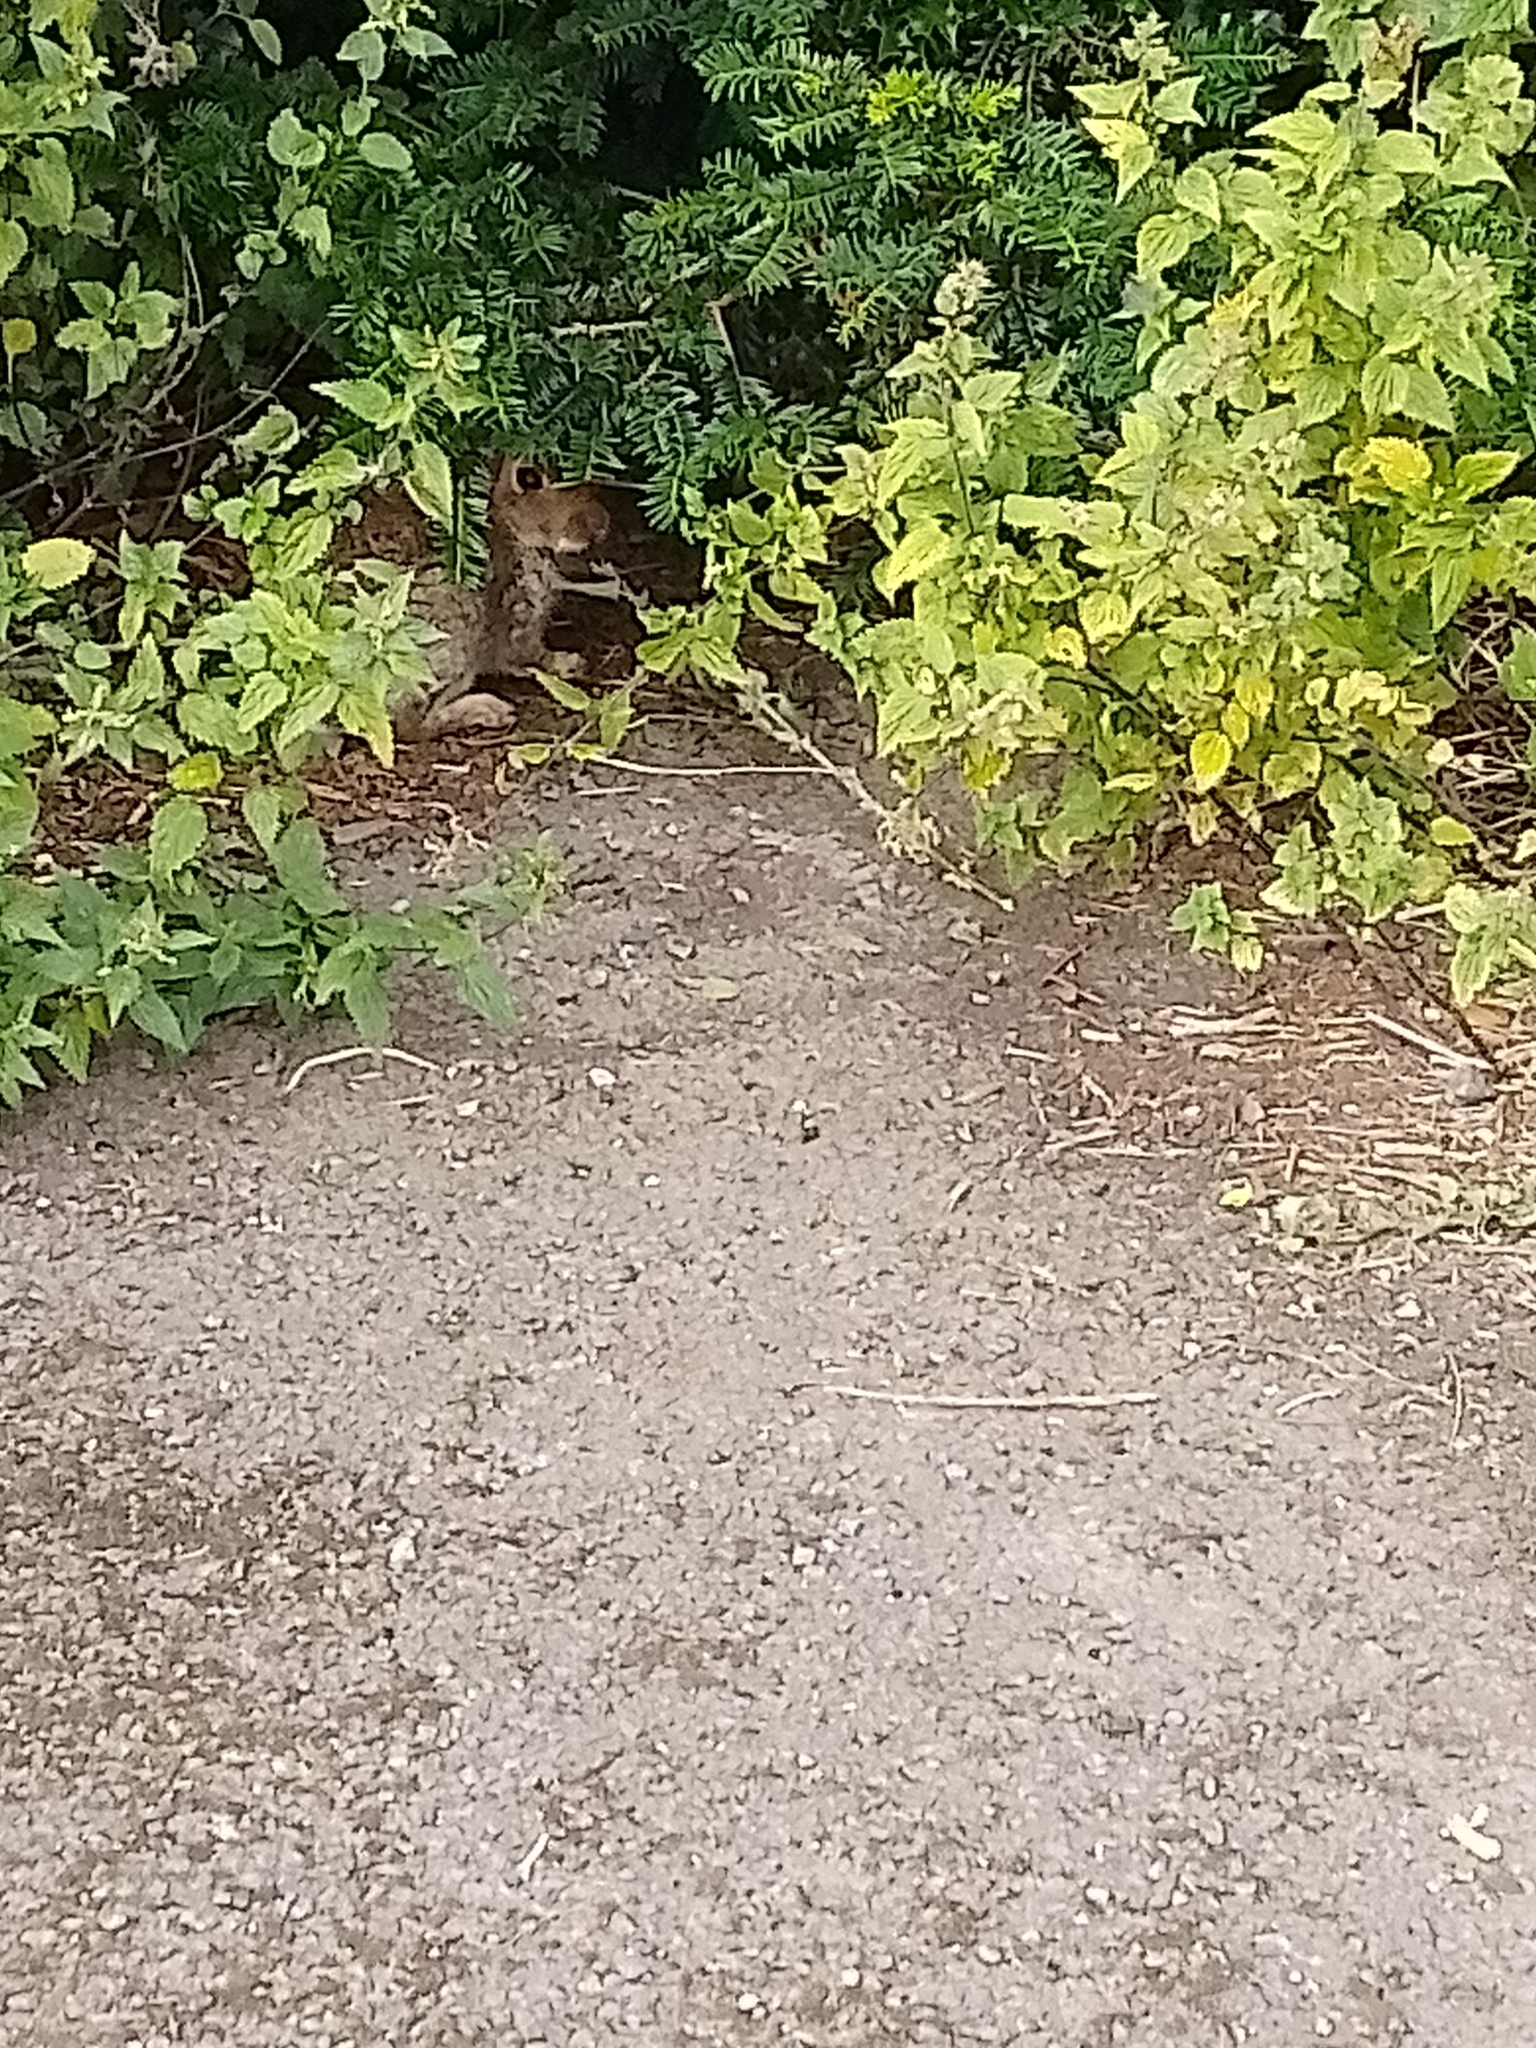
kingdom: Animalia
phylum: Chordata
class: Mammalia
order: Lagomorpha
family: Leporidae
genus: Oryctolagus
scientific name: Oryctolagus cuniculus
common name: European rabbit
